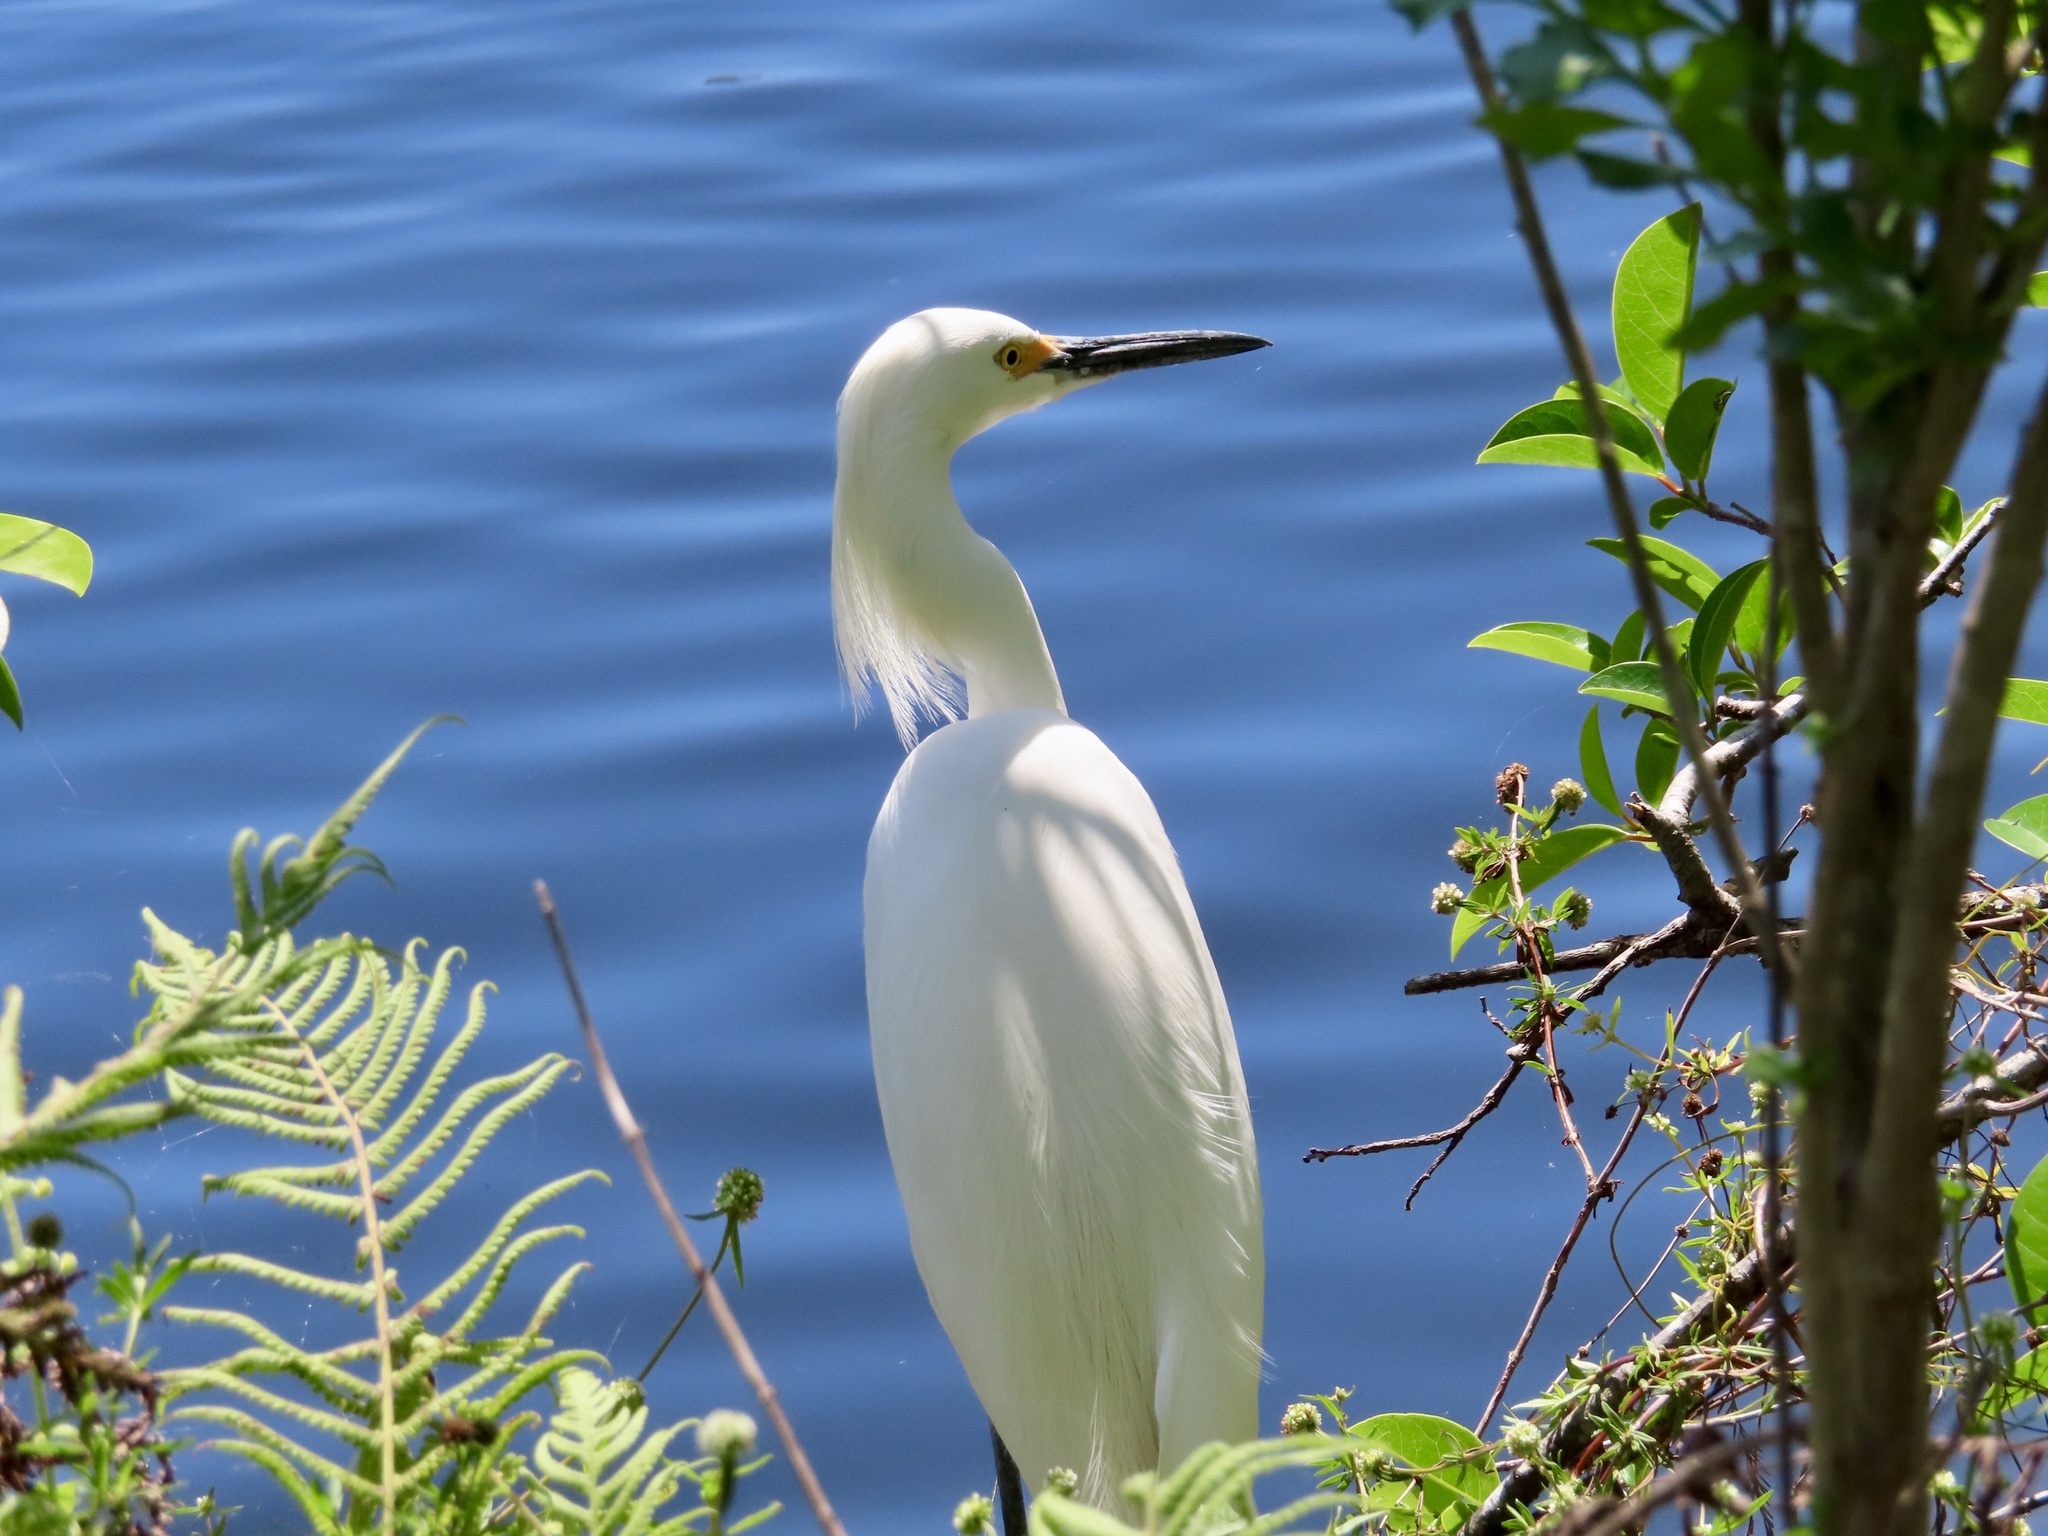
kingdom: Animalia
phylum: Chordata
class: Aves
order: Pelecaniformes
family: Ardeidae
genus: Egretta
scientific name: Egretta thula
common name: Snowy egret
